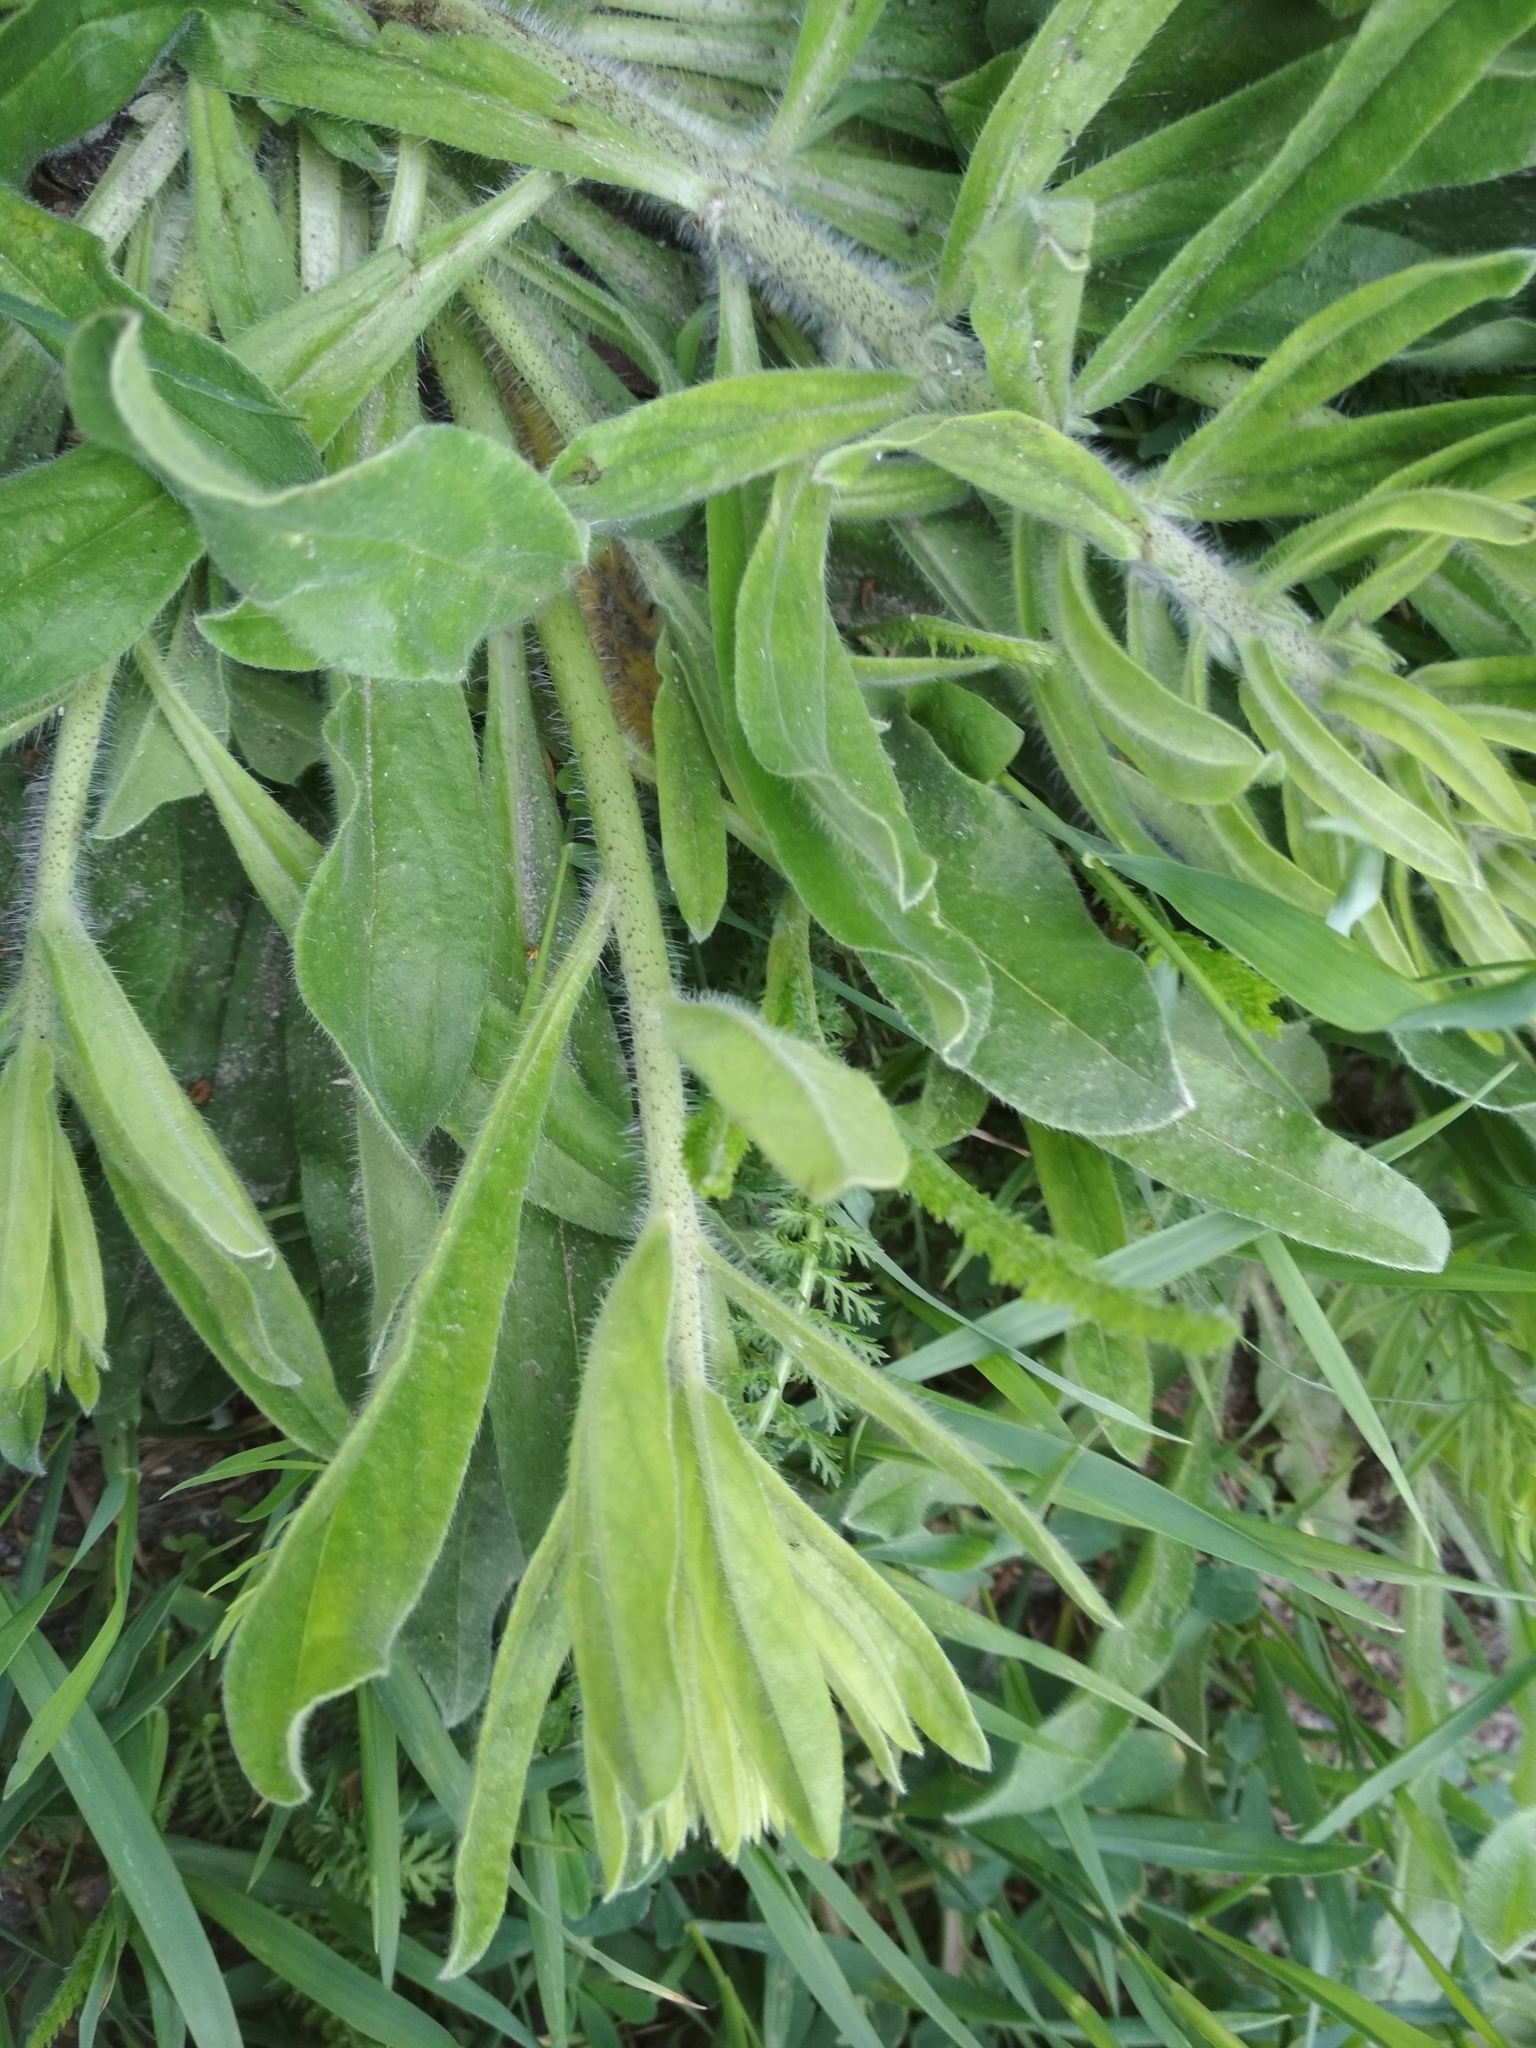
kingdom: Plantae
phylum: Tracheophyta
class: Magnoliopsida
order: Boraginales
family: Boraginaceae
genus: Echium
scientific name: Echium vulgare
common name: Common viper's bugloss
